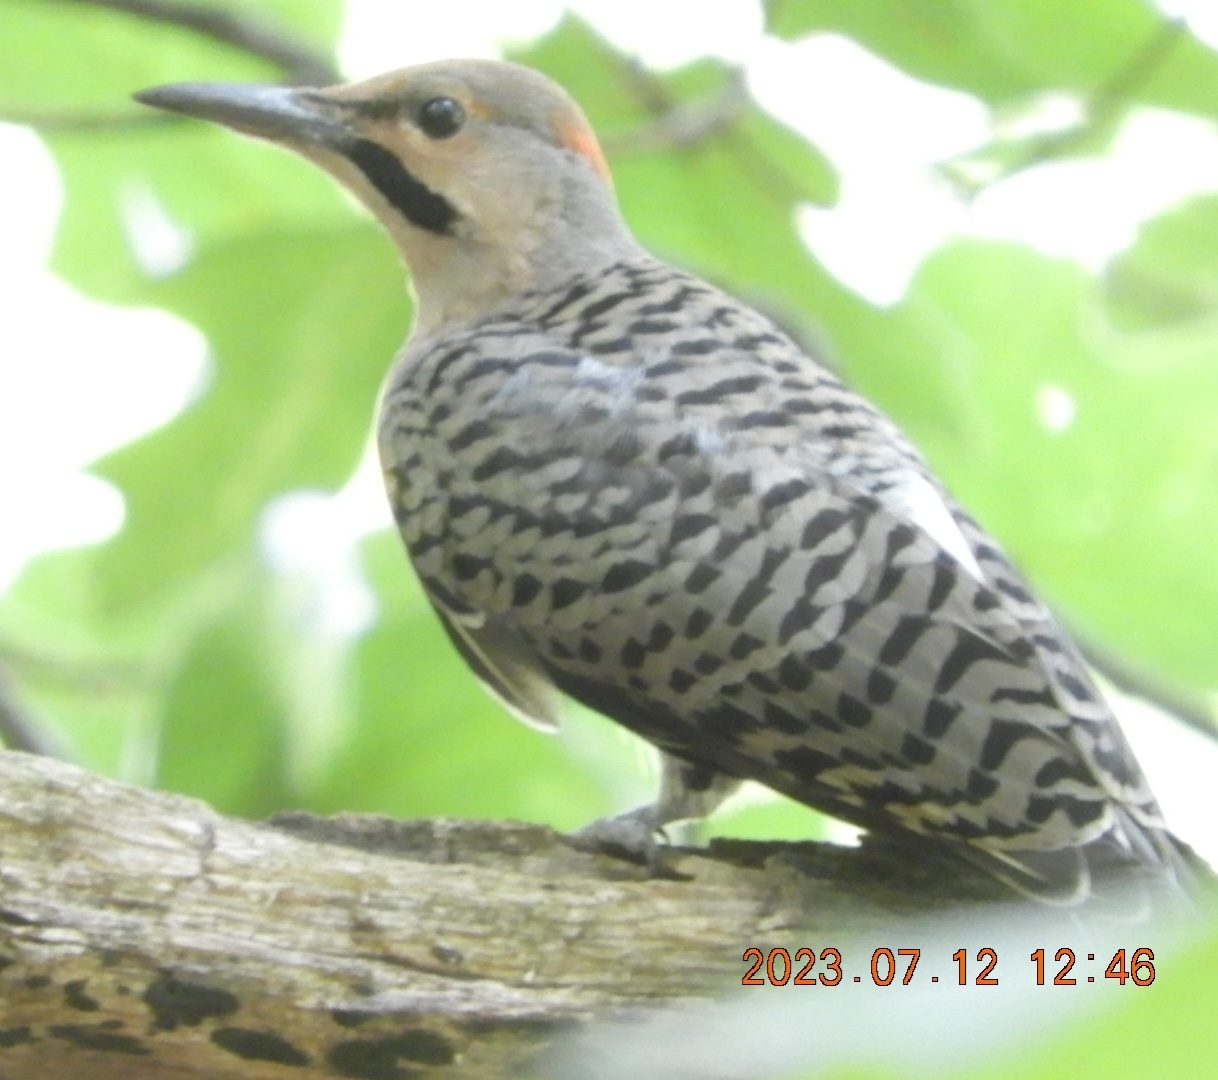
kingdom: Animalia
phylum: Chordata
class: Aves
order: Piciformes
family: Picidae
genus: Colaptes
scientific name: Colaptes auratus
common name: Northern flicker
